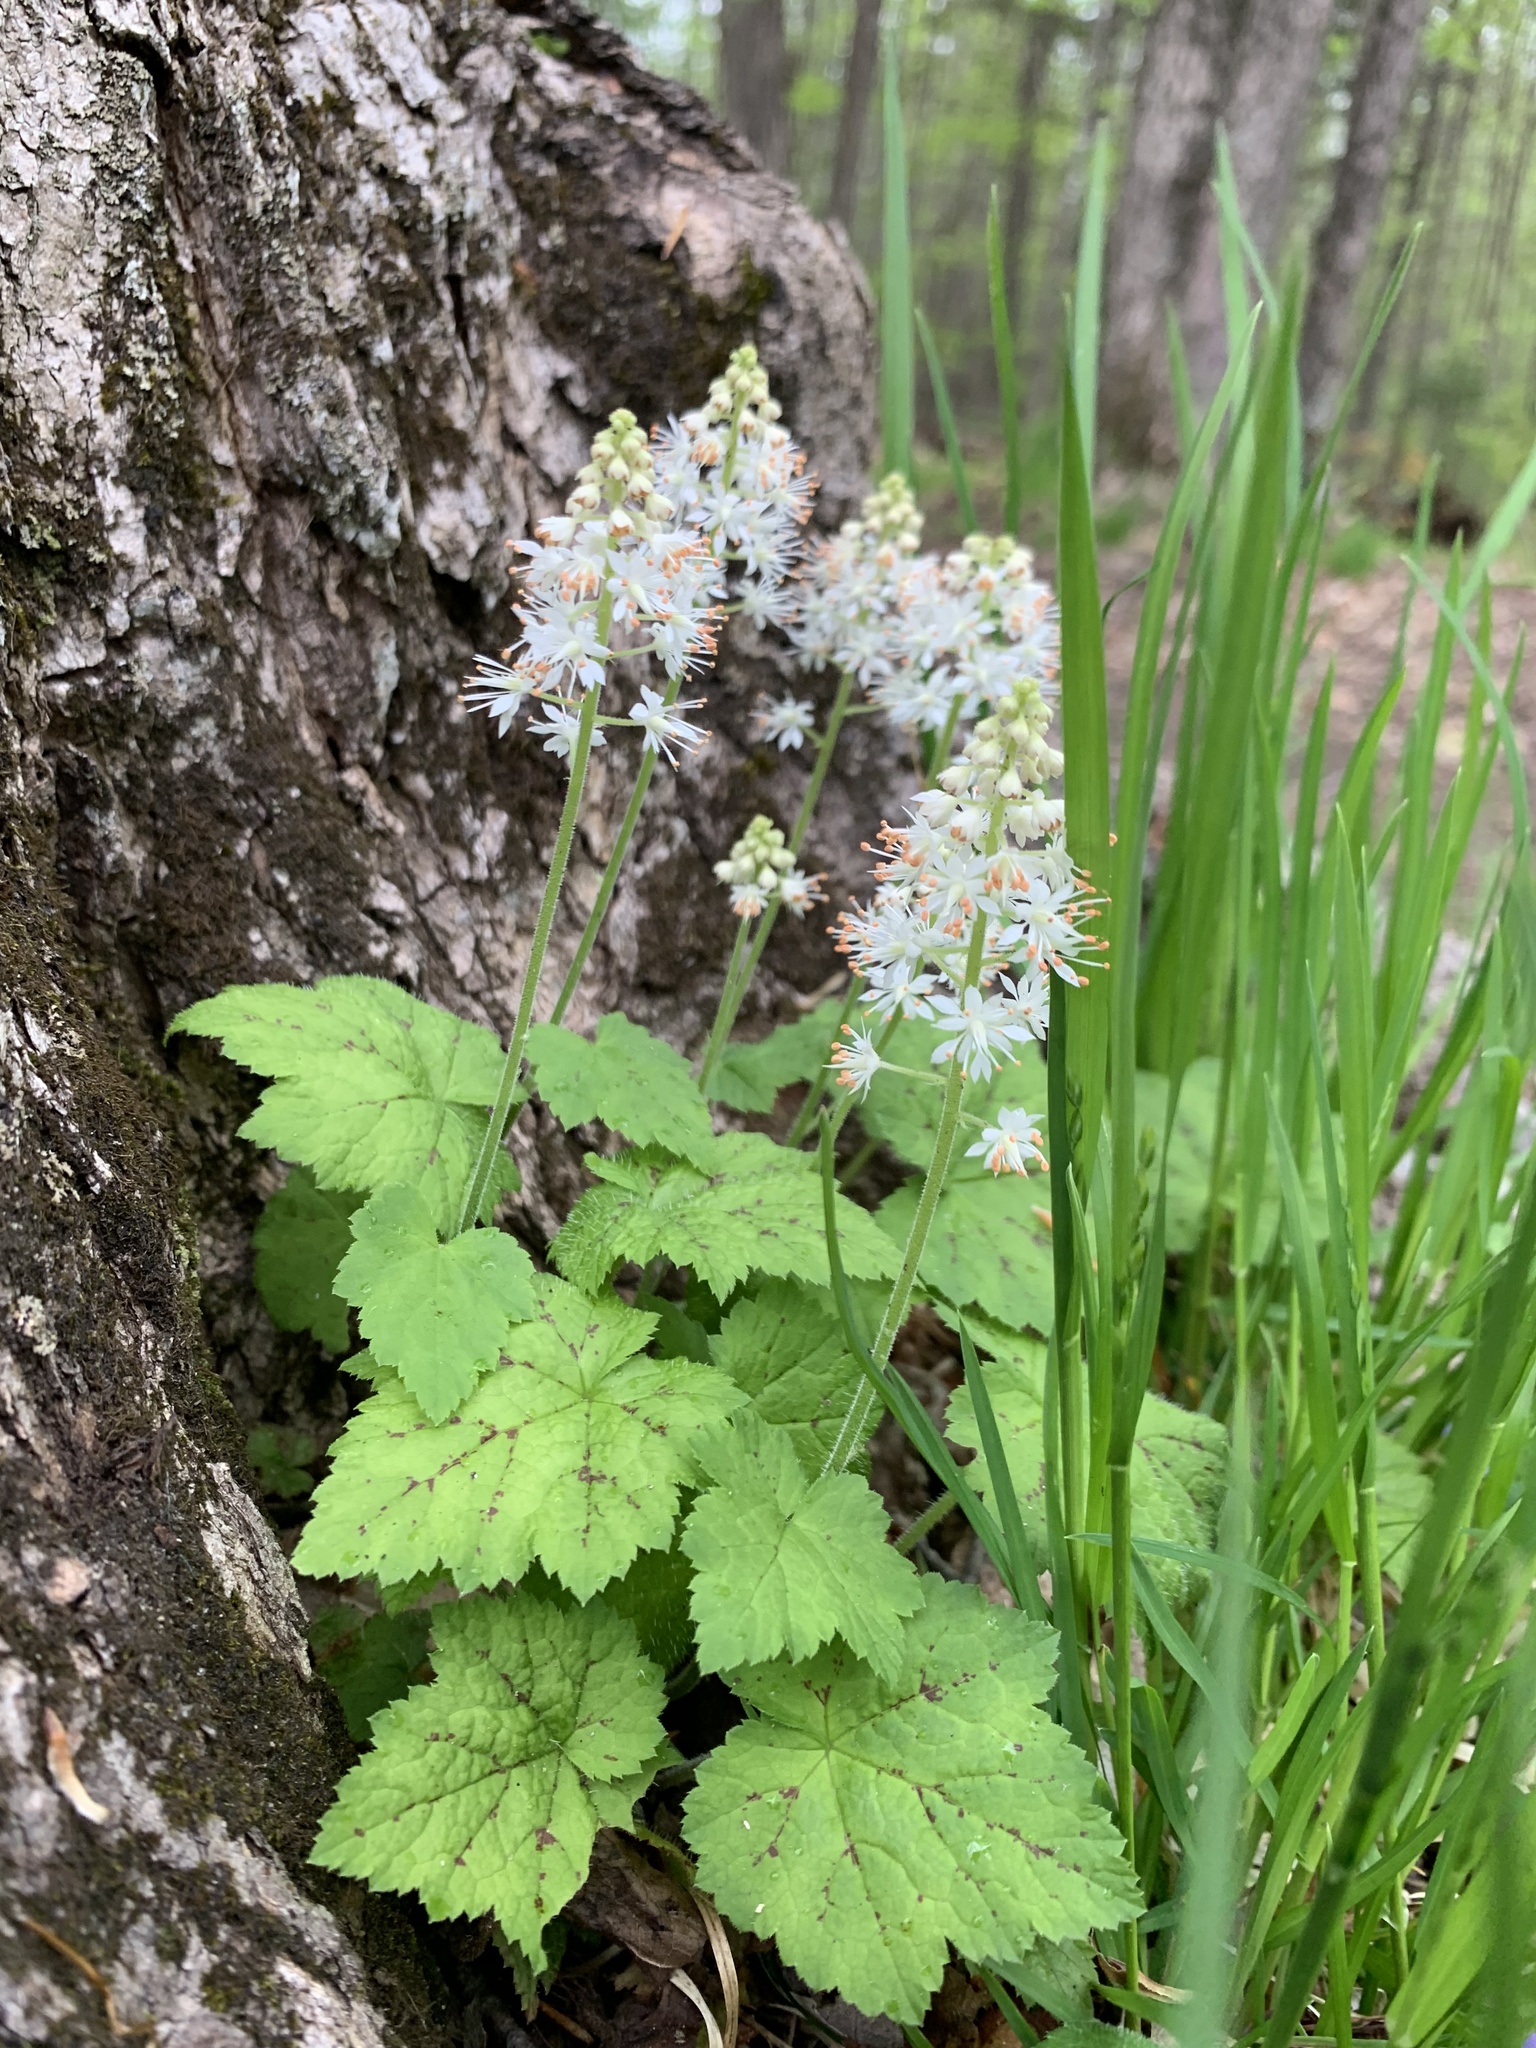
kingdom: Plantae
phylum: Tracheophyta
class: Magnoliopsida
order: Saxifragales
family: Saxifragaceae
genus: Tiarella
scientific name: Tiarella stolonifera
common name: Stoloniferous foamflower
